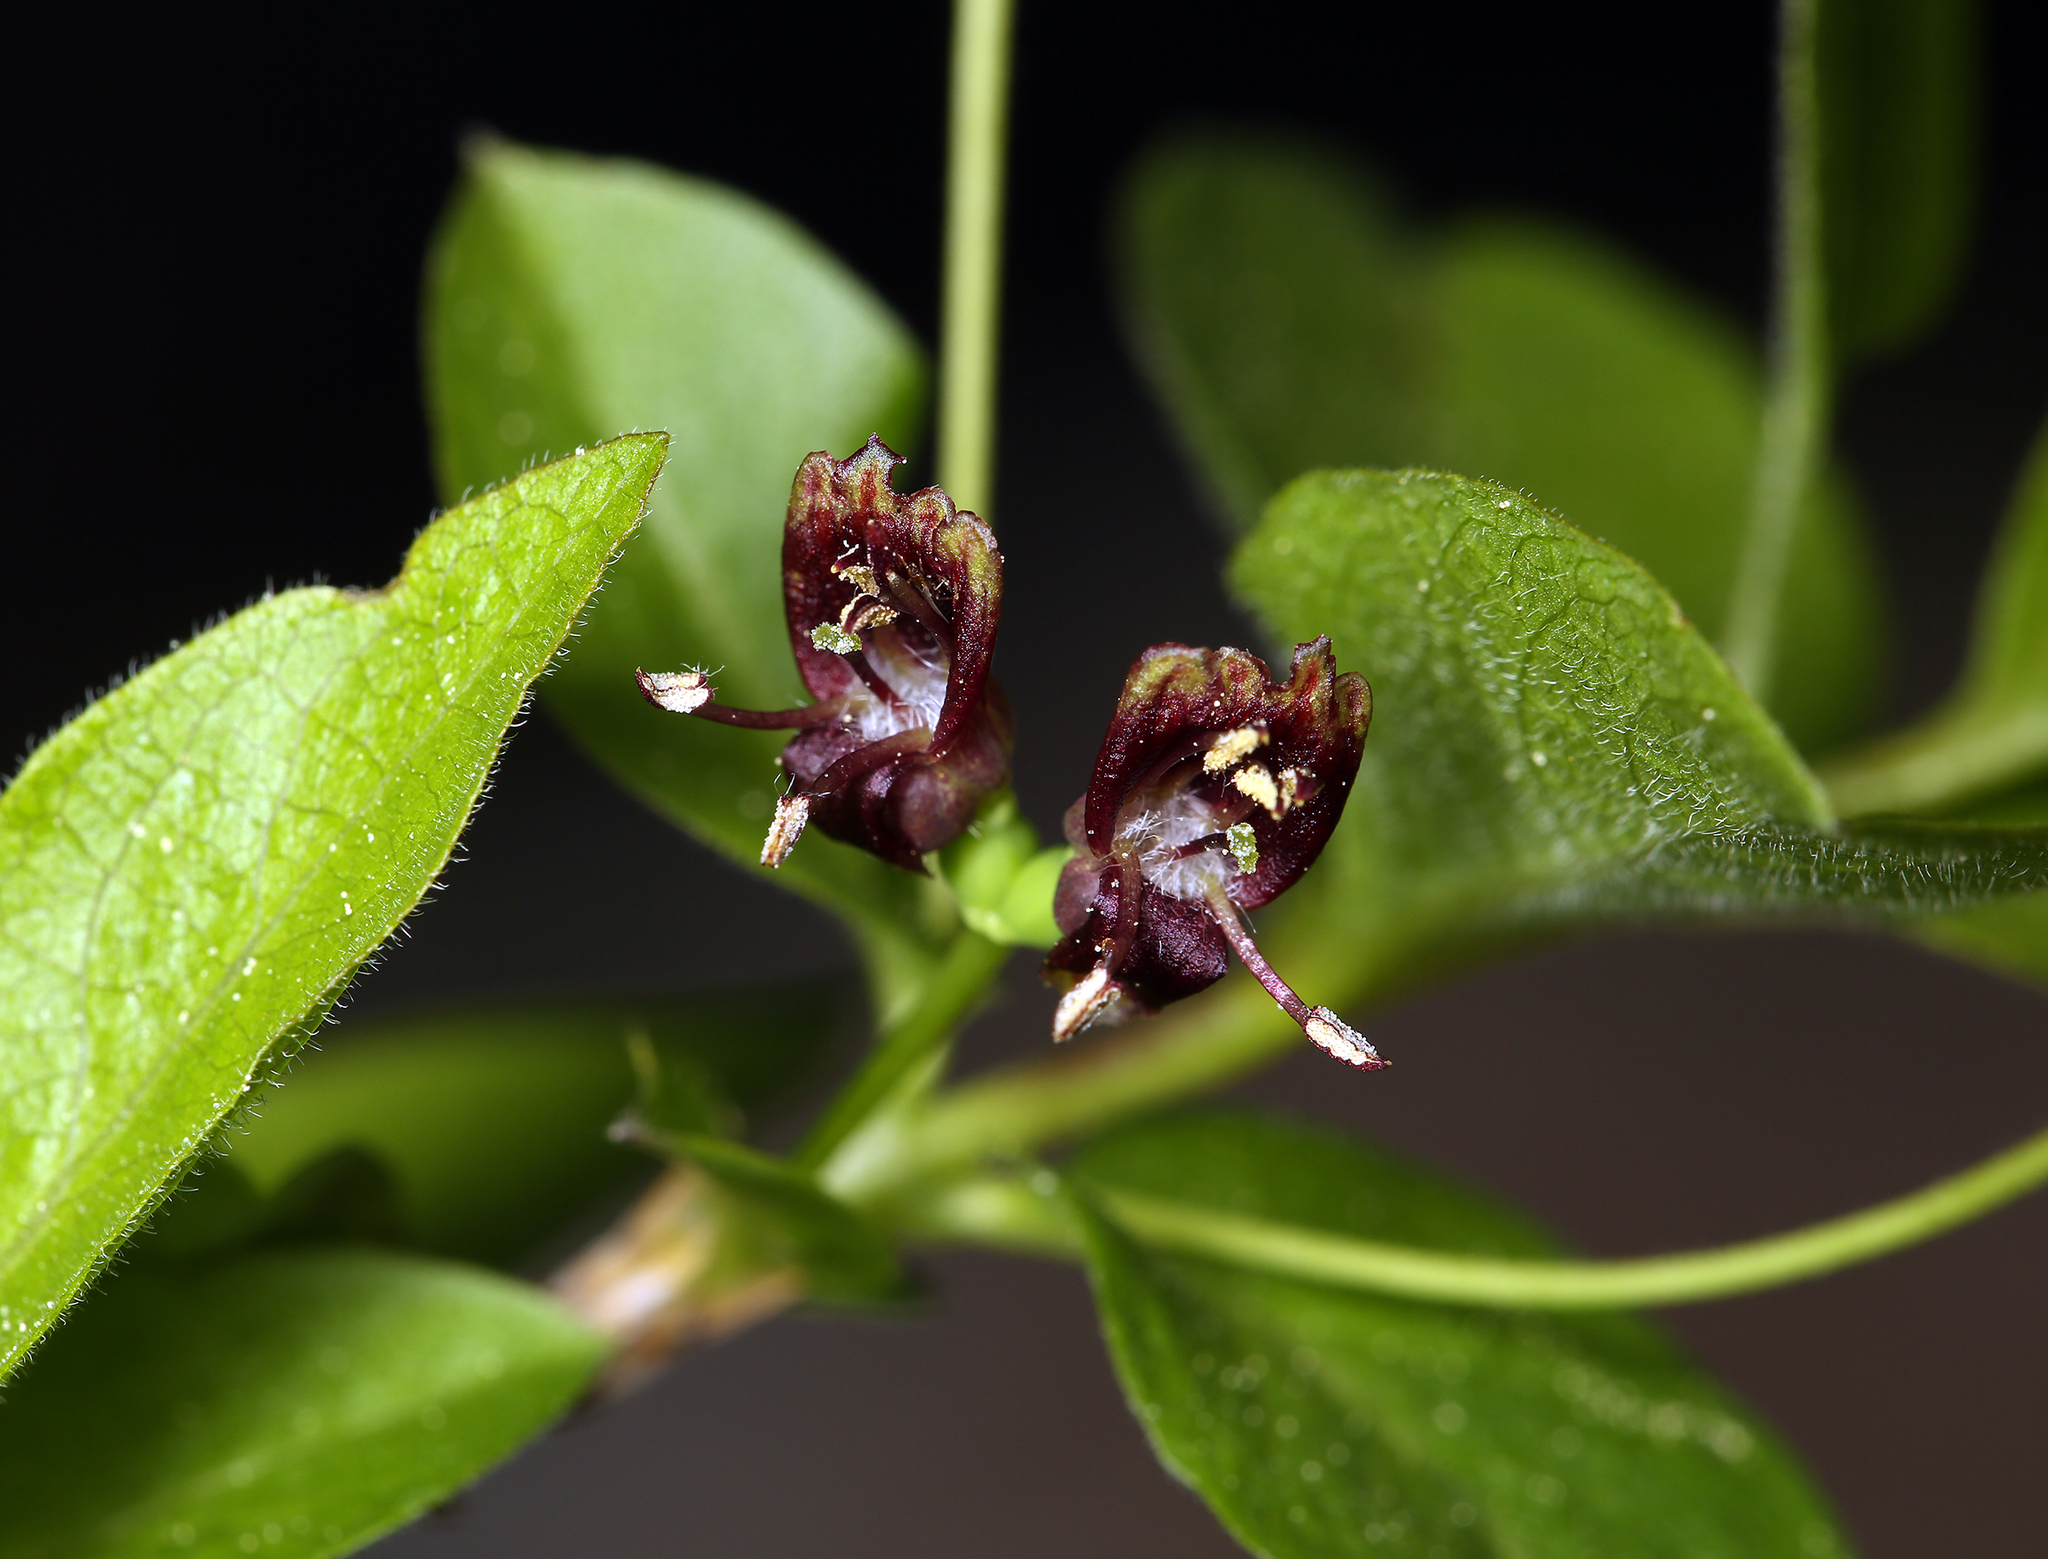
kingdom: Plantae
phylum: Tracheophyta
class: Magnoliopsida
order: Dipsacales
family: Caprifoliaceae
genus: Lonicera
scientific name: Lonicera conjugialis
